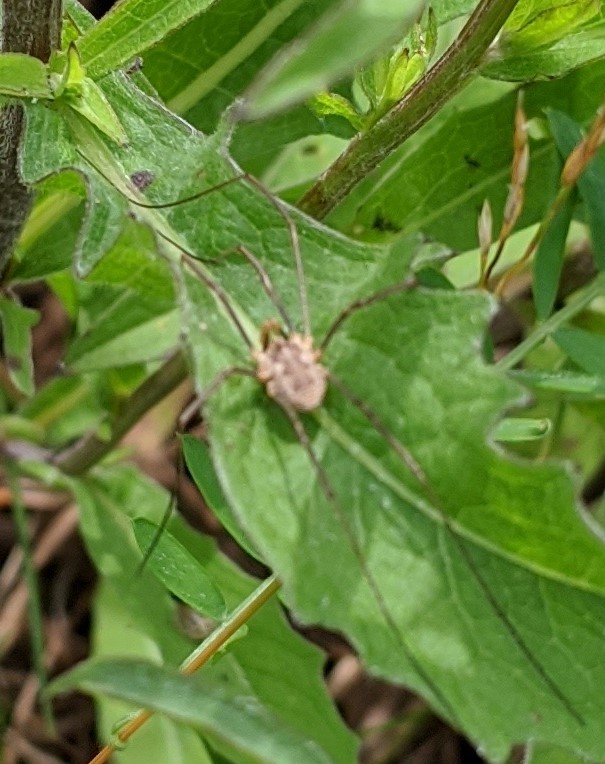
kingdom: Animalia
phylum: Arthropoda
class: Arachnida
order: Opiliones
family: Phalangiidae
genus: Phalangium
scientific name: Phalangium opilio
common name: Daddy longleg
